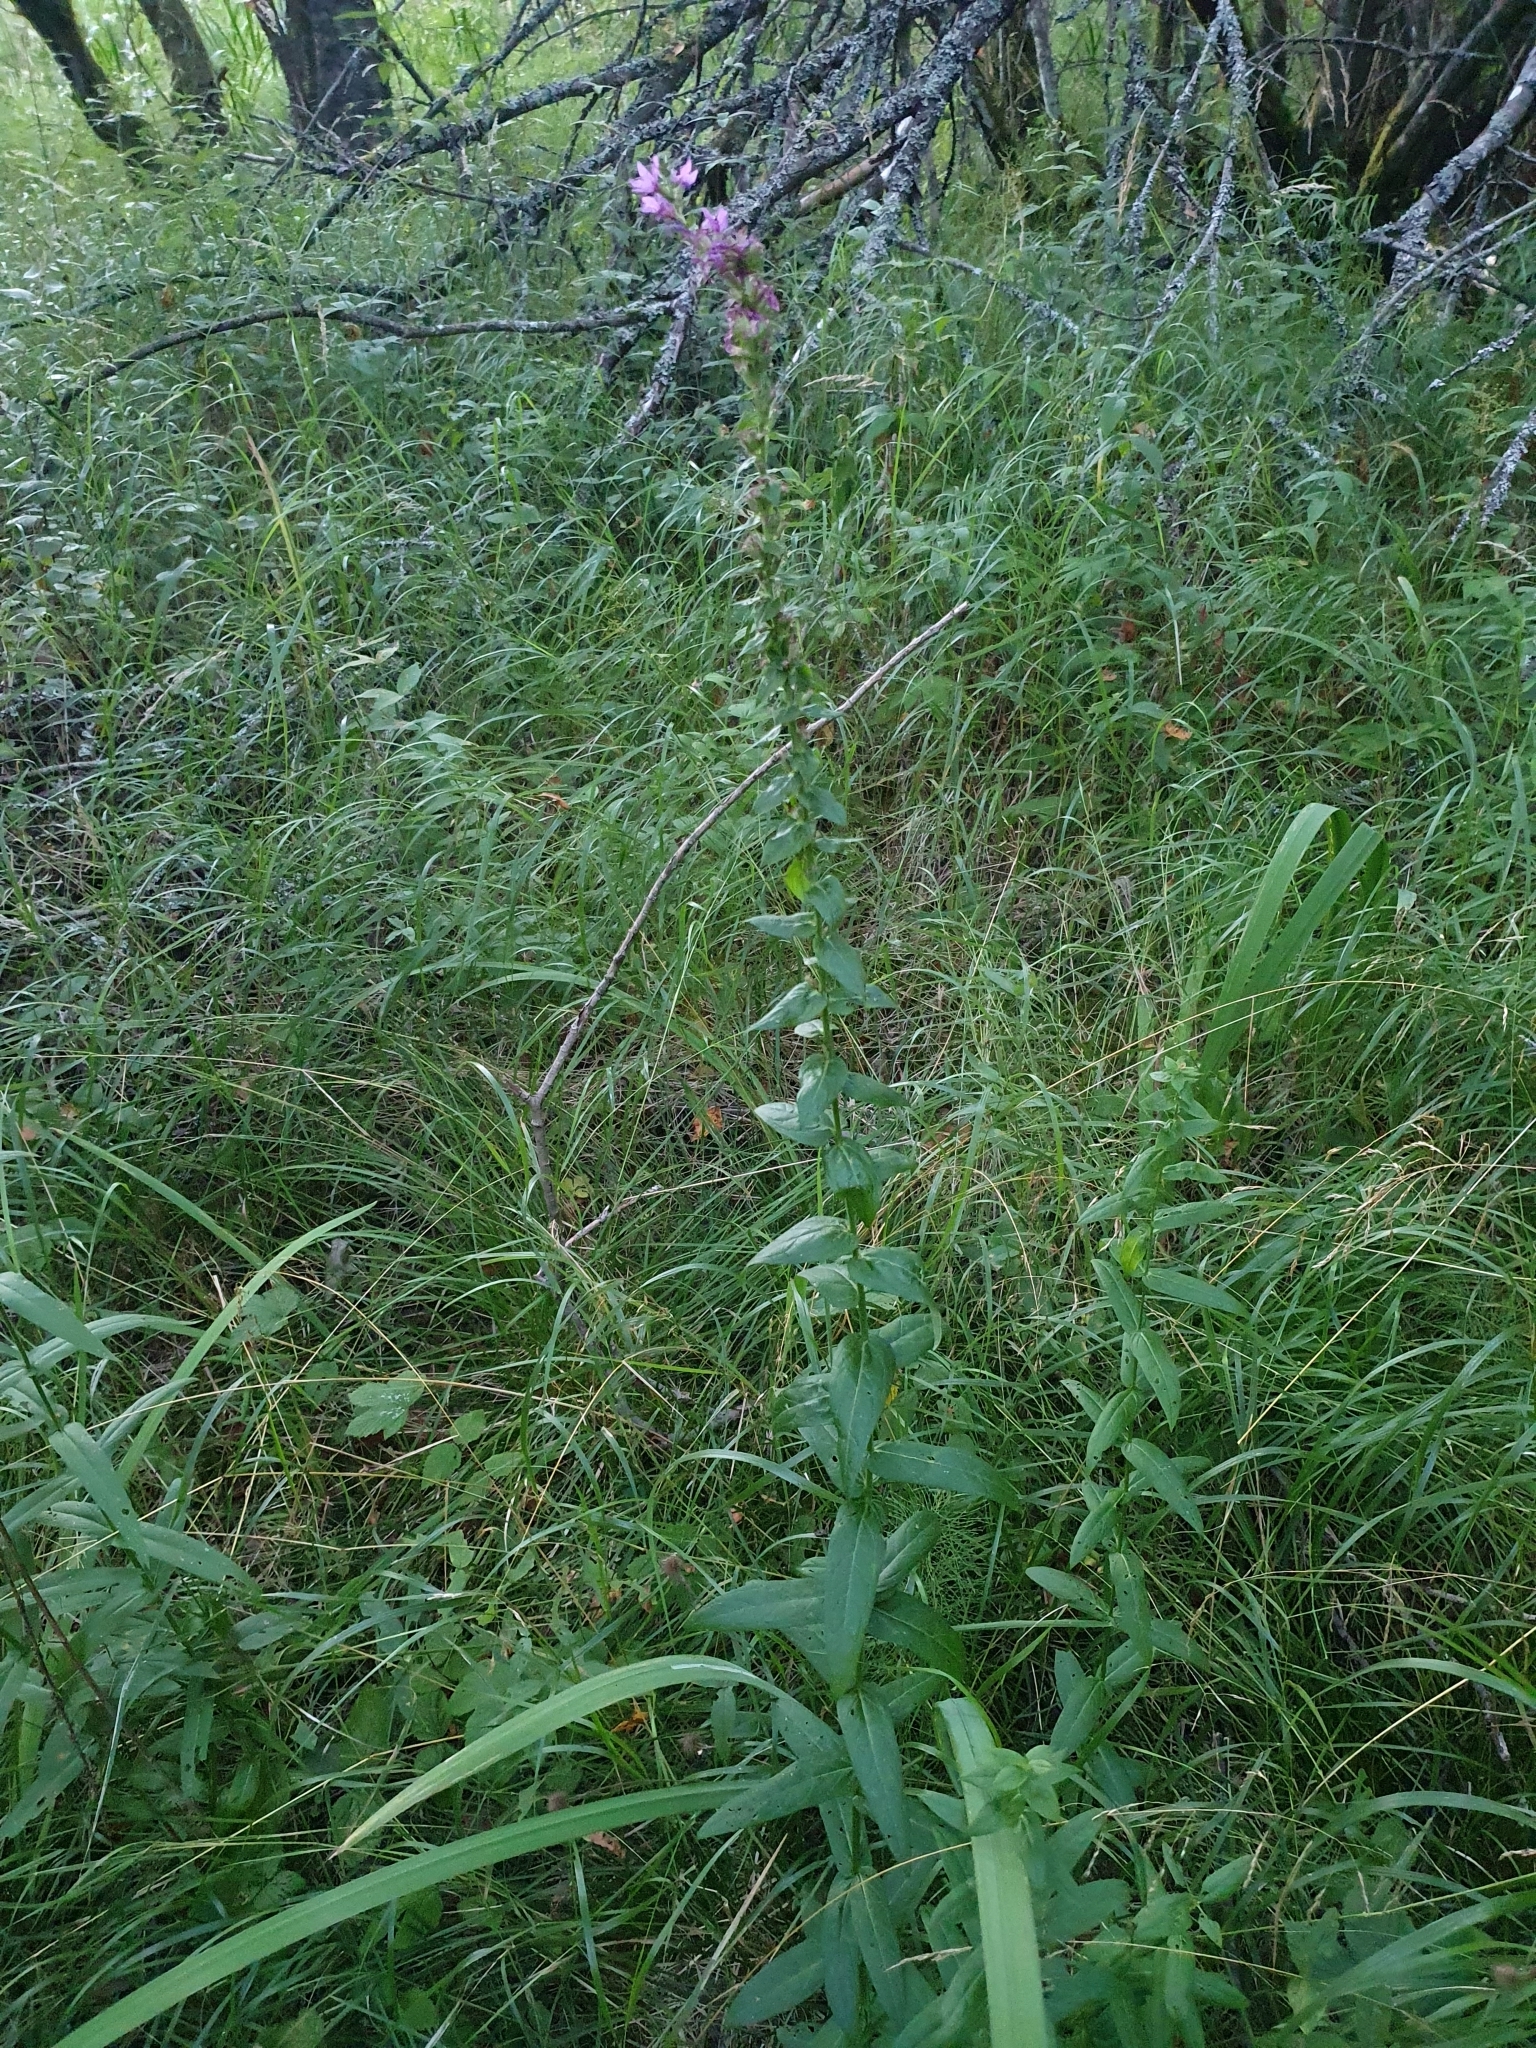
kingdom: Plantae
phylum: Tracheophyta
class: Magnoliopsida
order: Myrtales
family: Lythraceae
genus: Lythrum
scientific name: Lythrum salicaria
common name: Purple loosestrife
